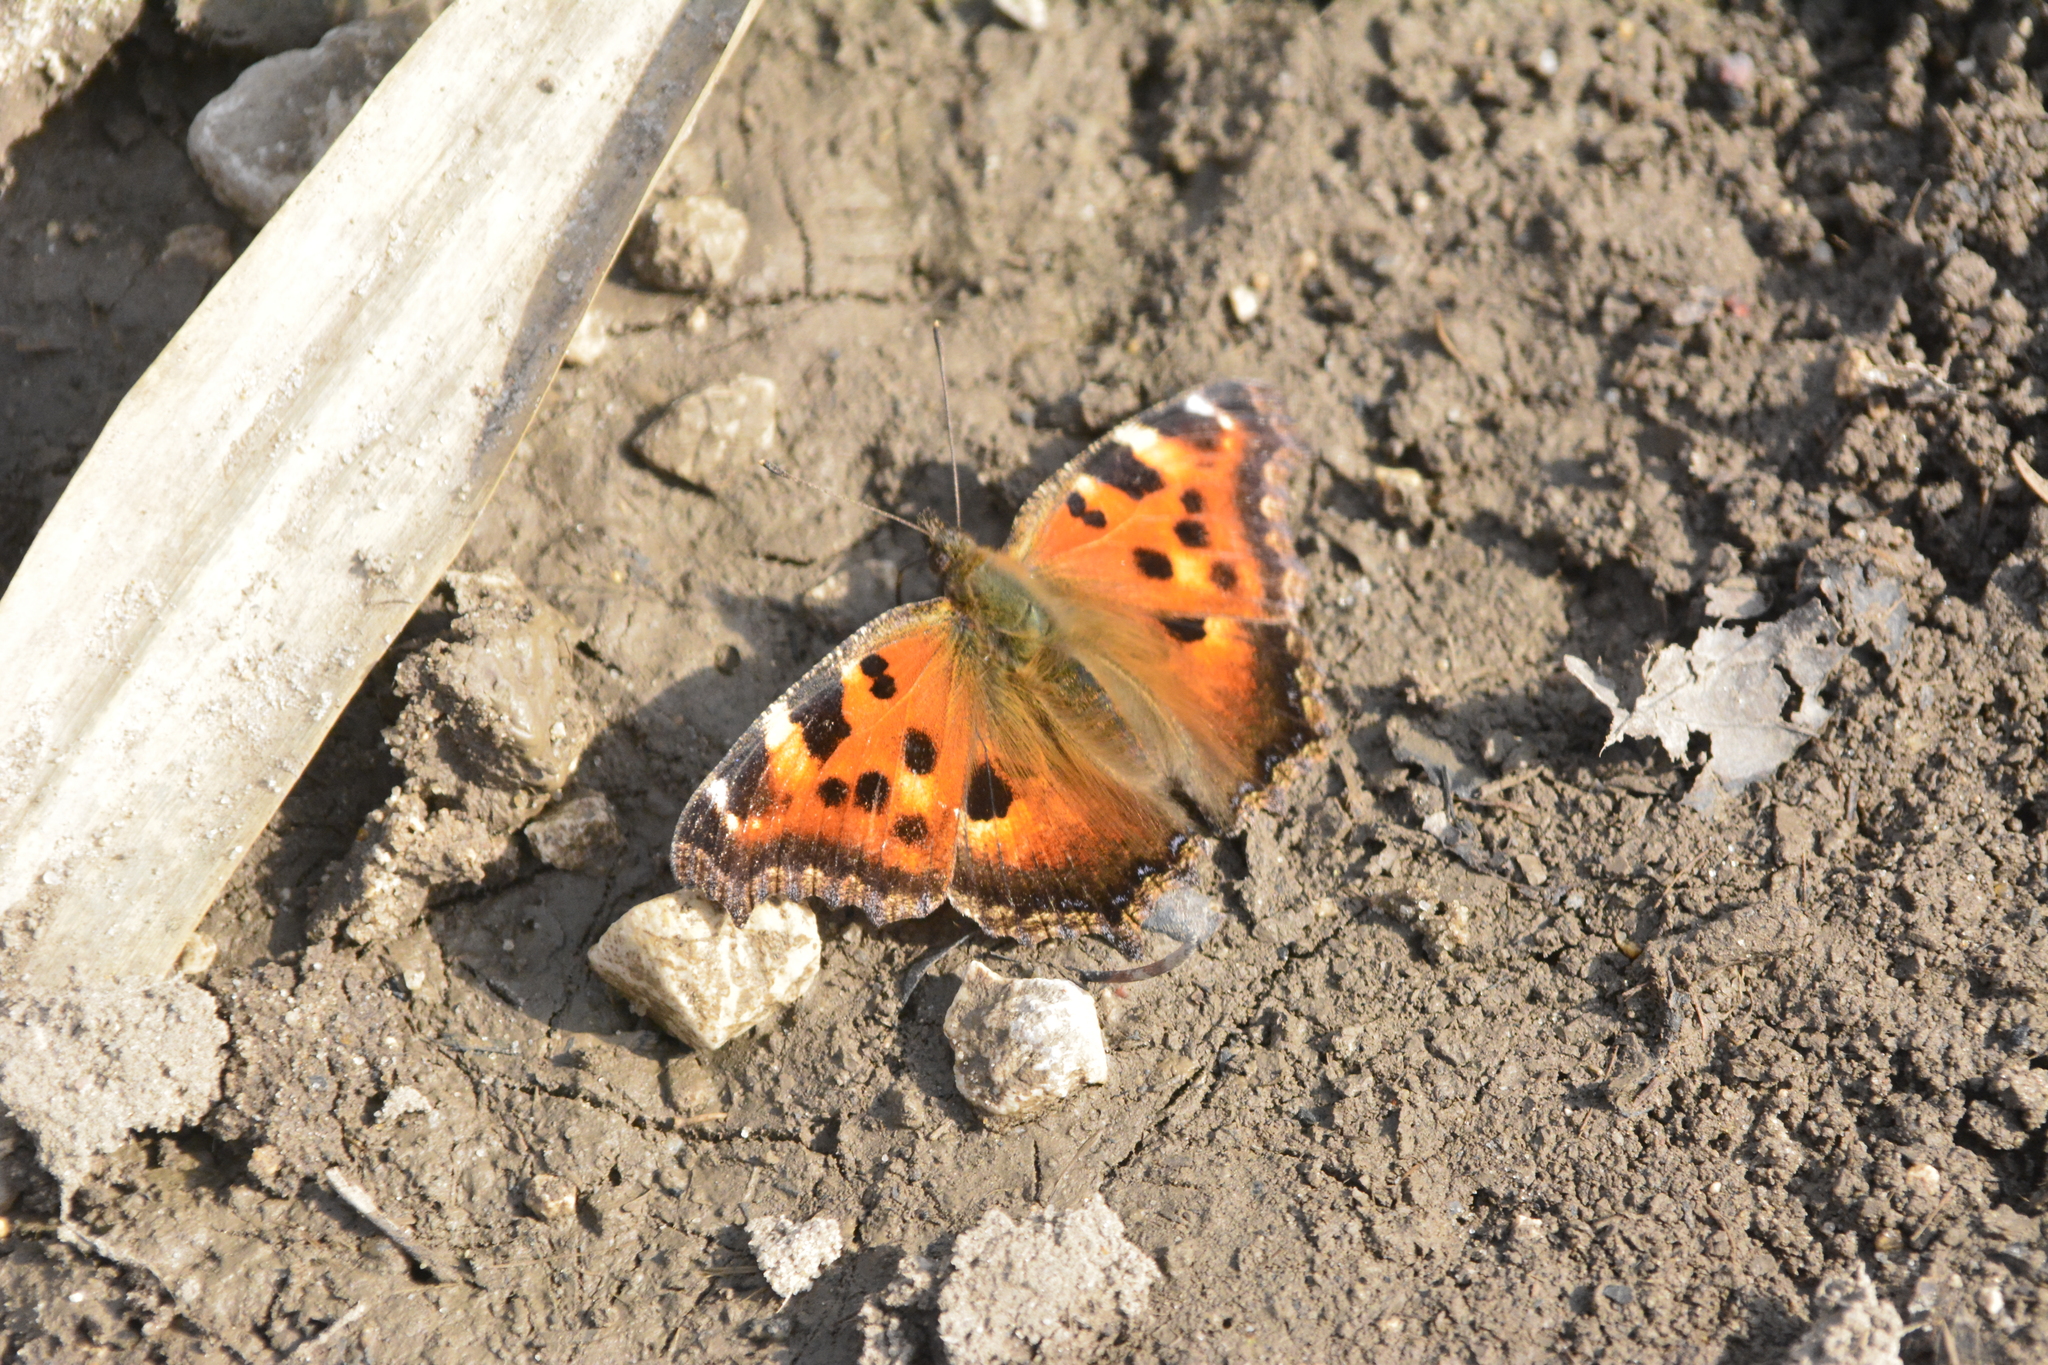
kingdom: Animalia
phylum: Arthropoda
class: Insecta
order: Lepidoptera
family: Nymphalidae
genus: Nymphalis
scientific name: Nymphalis xanthomelas
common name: Scarce tortoiseshell
